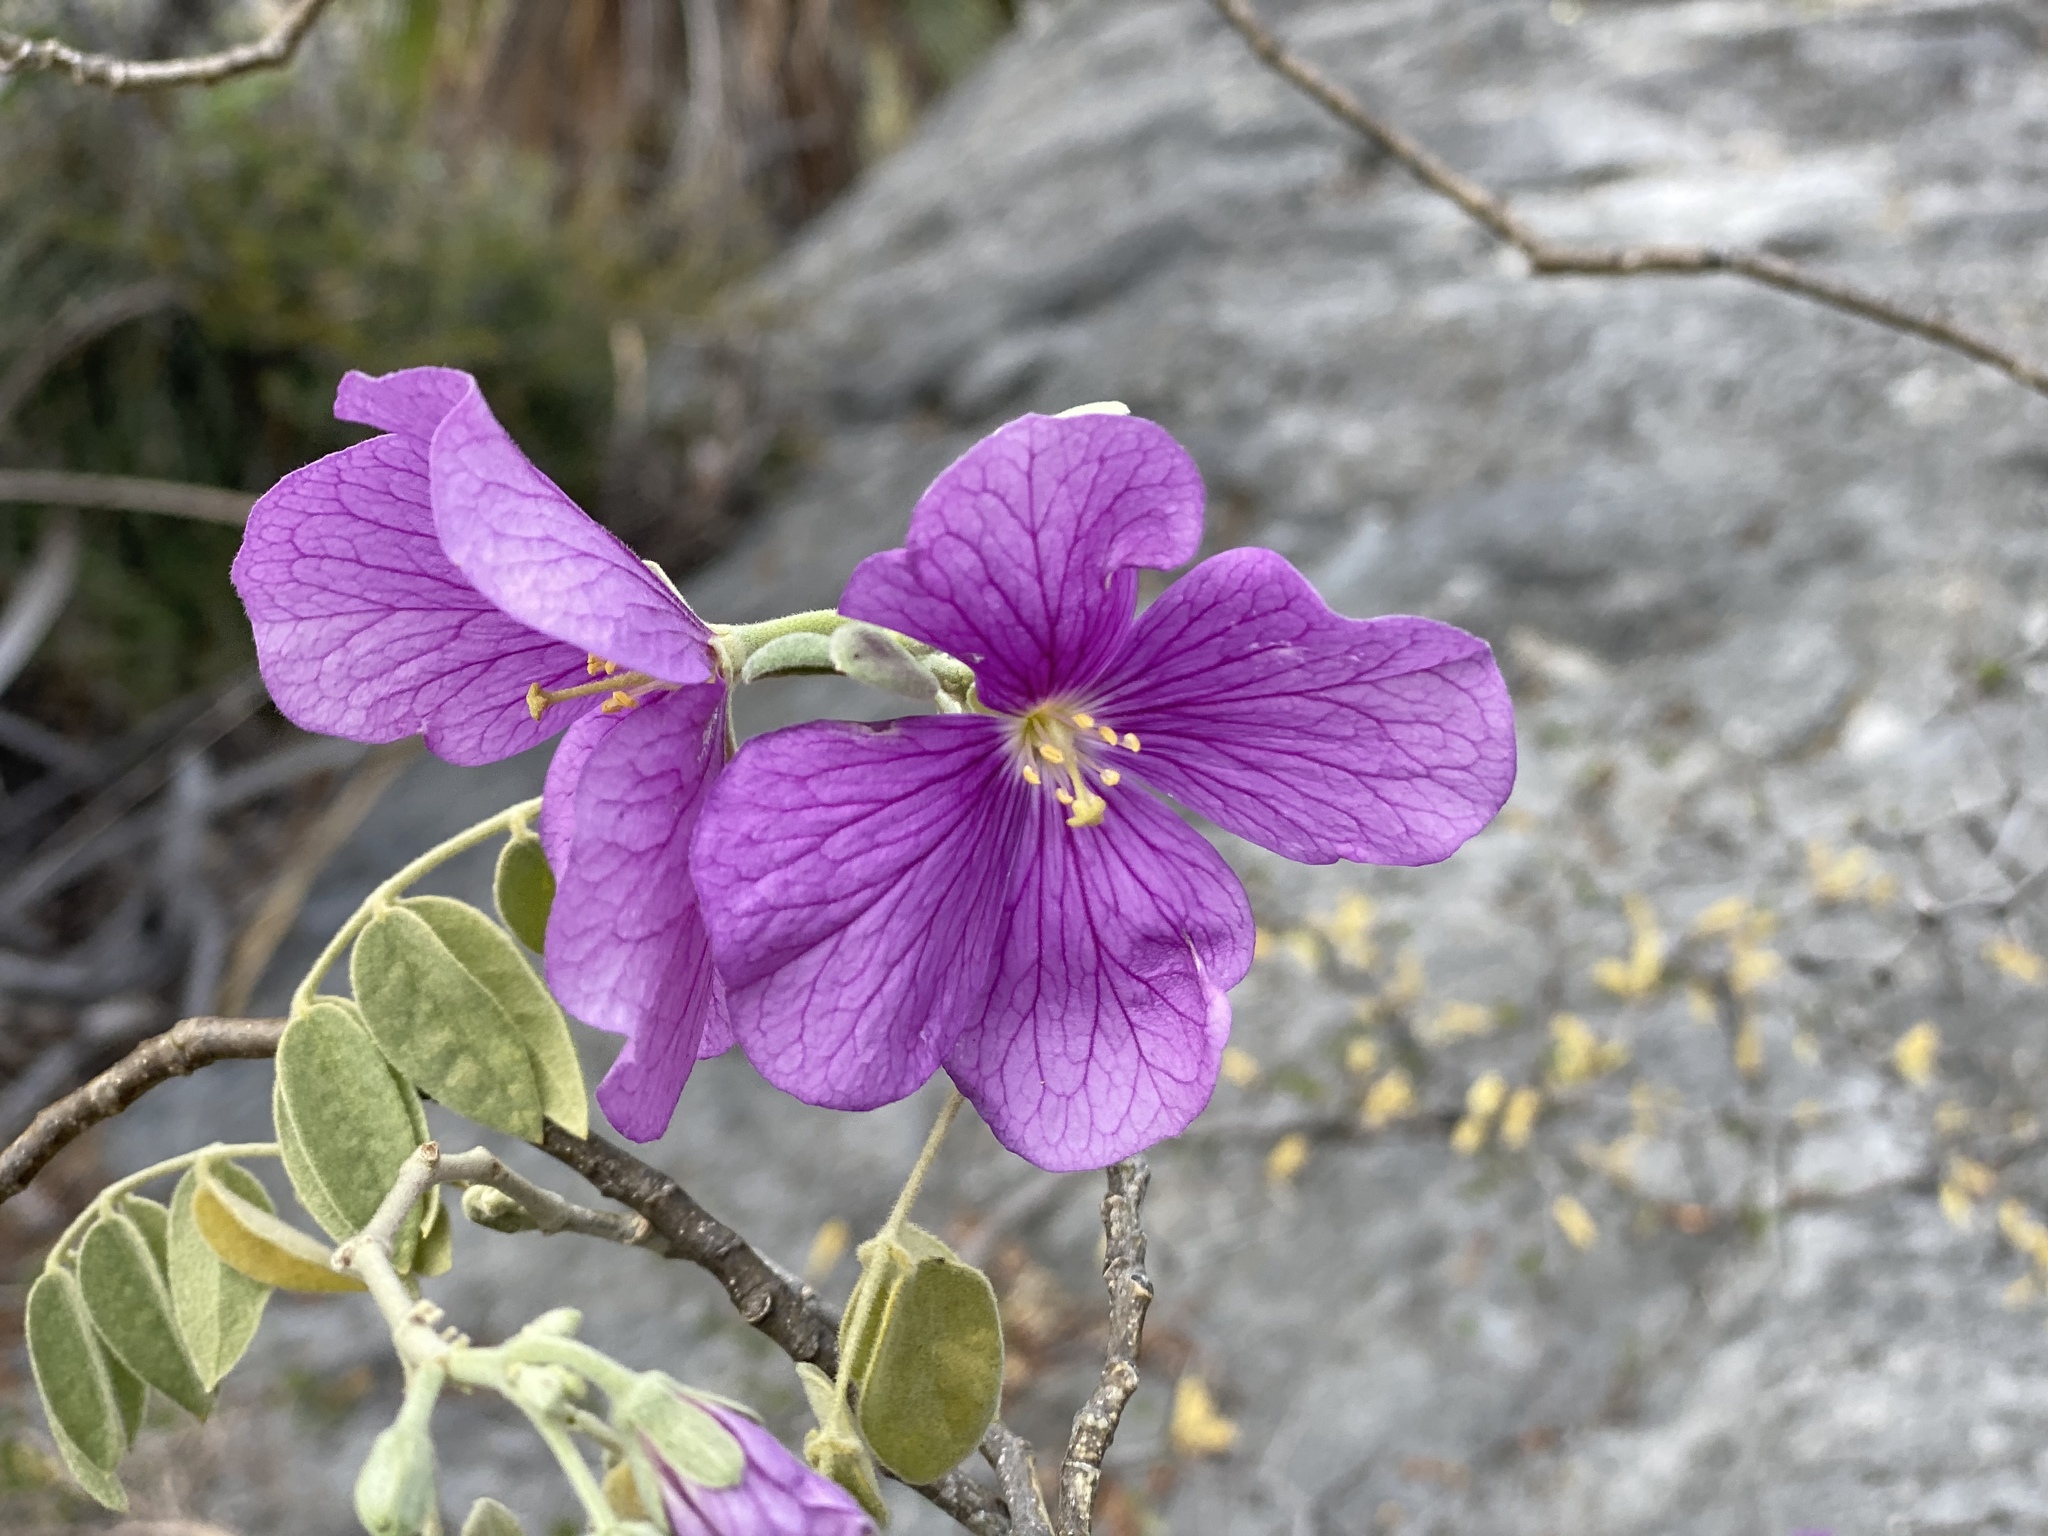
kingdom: Plantae
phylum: Tracheophyta
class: Magnoliopsida
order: Zygophyllales
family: Zygophyllaceae
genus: Morkillia
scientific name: Morkillia acuminata
